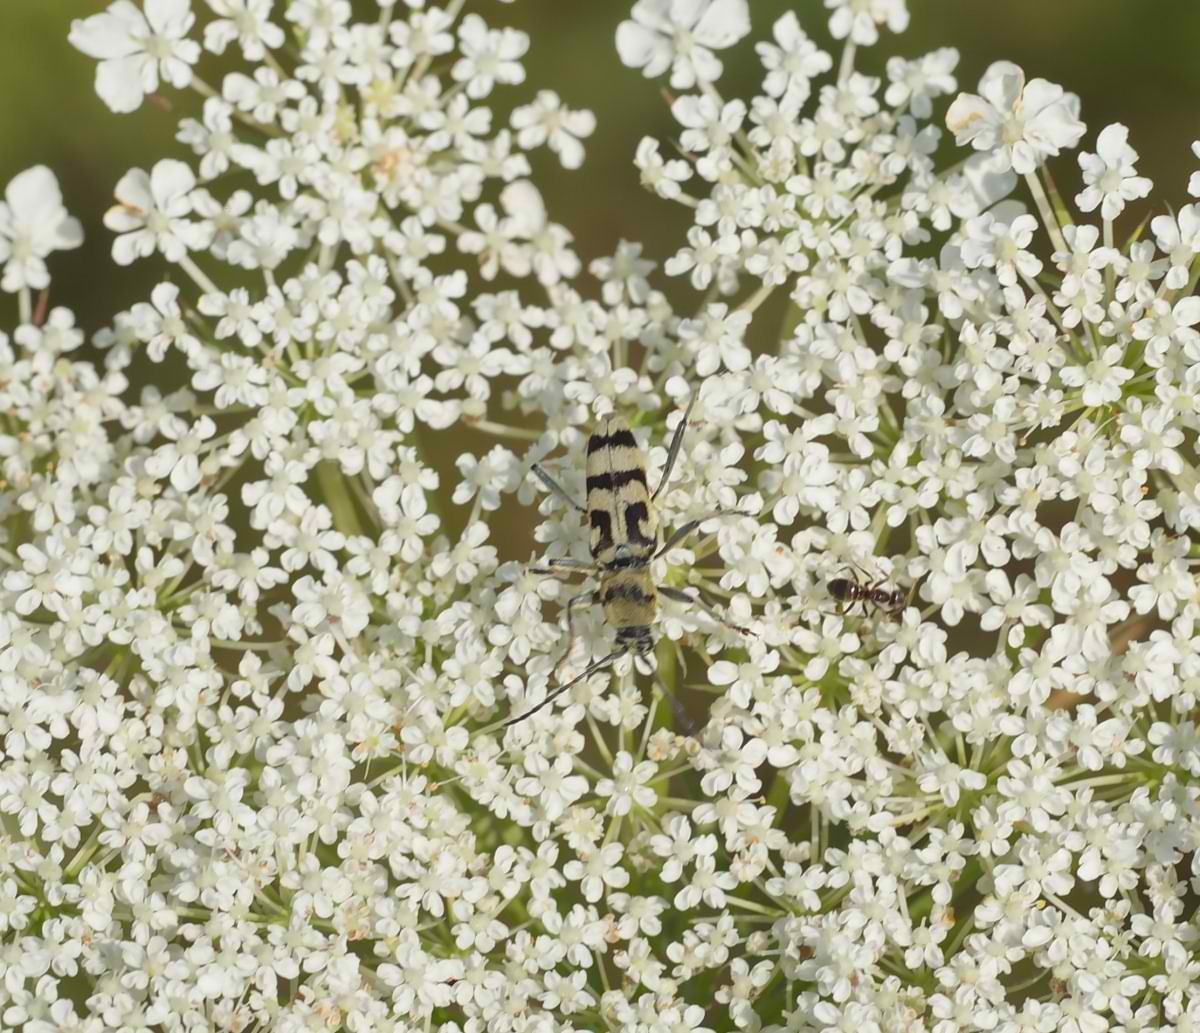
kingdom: Animalia
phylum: Arthropoda
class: Insecta
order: Coleoptera
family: Cerambycidae
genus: Chlorophorus
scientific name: Chlorophorus varius
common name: Grape wood borer
